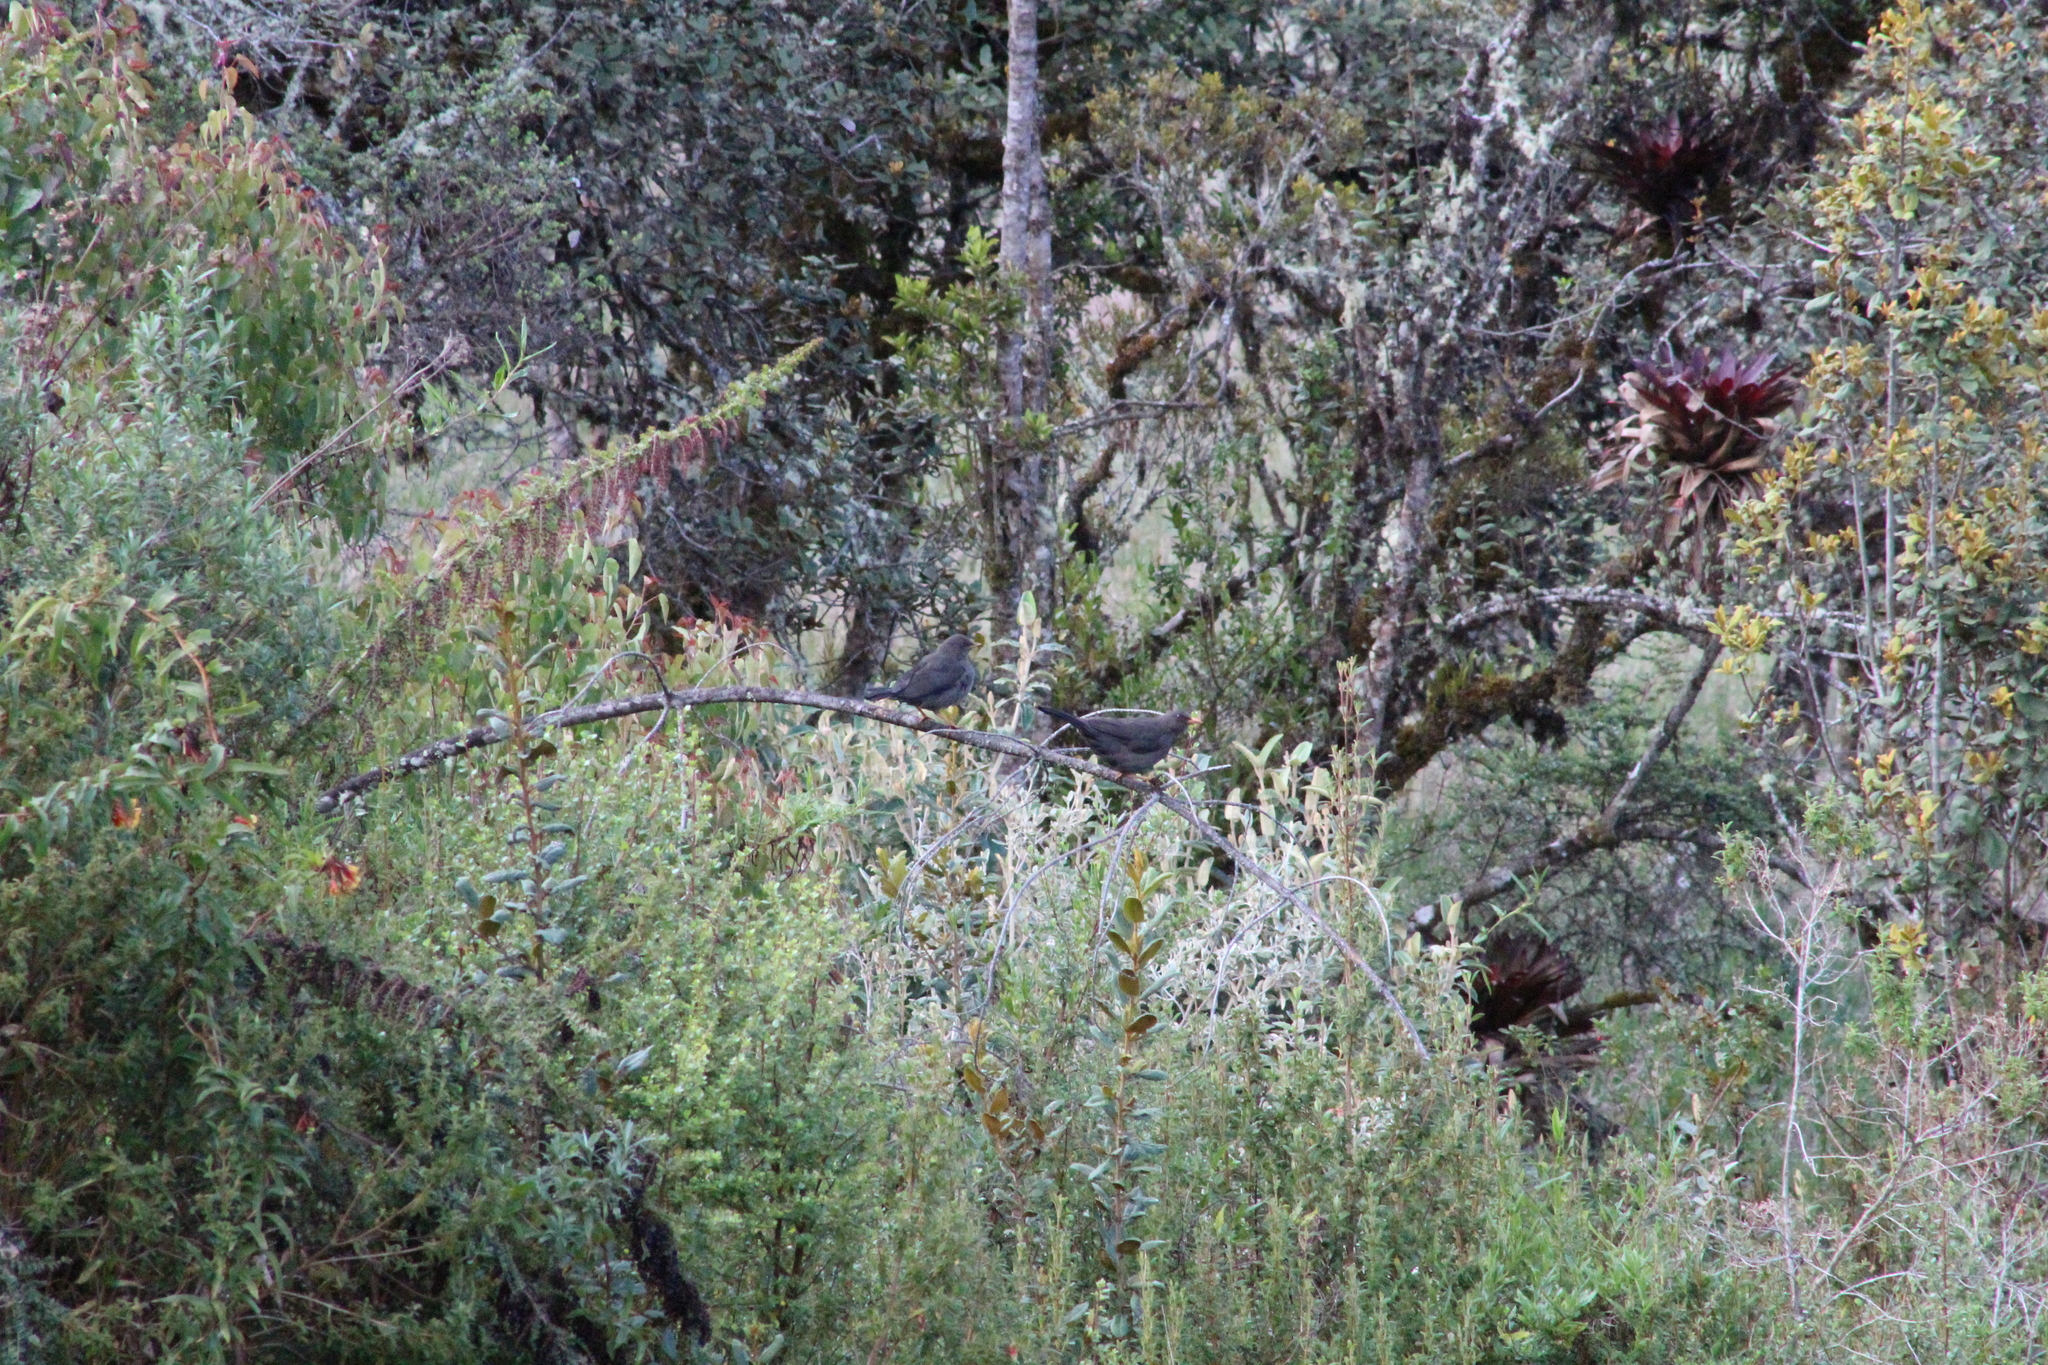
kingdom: Animalia
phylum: Chordata
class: Aves
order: Passeriformes
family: Turdidae
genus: Turdus
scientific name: Turdus fuscater
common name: Great thrush
